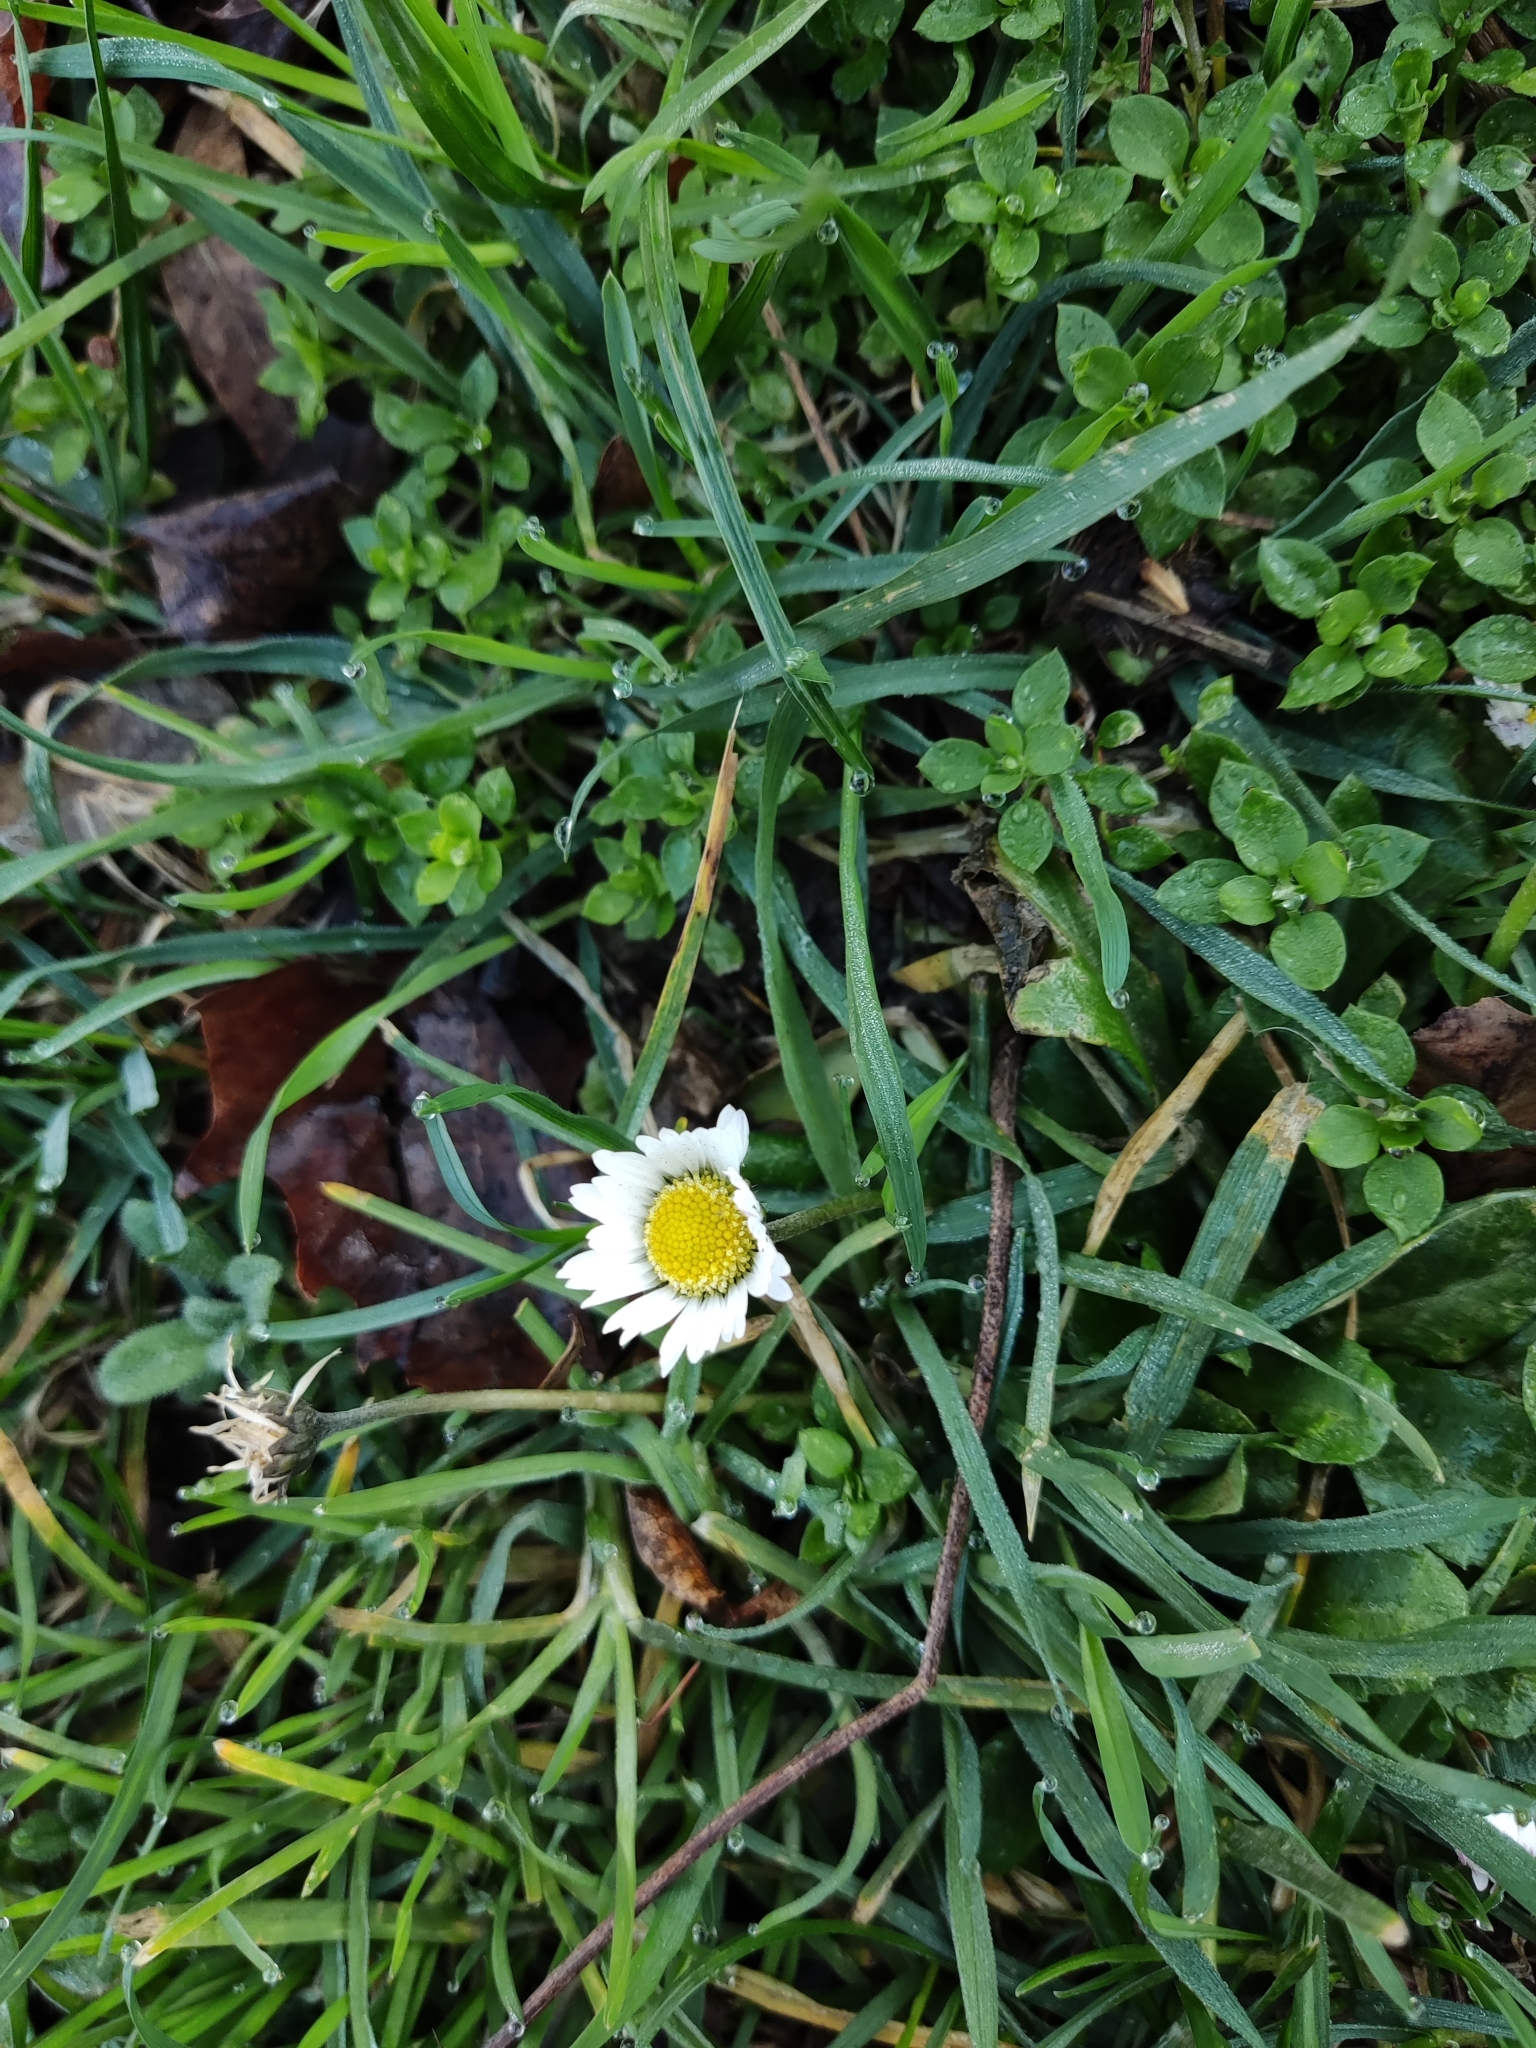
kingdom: Plantae
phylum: Tracheophyta
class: Magnoliopsida
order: Asterales
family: Asteraceae
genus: Bellis
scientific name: Bellis perennis
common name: Lawndaisy
